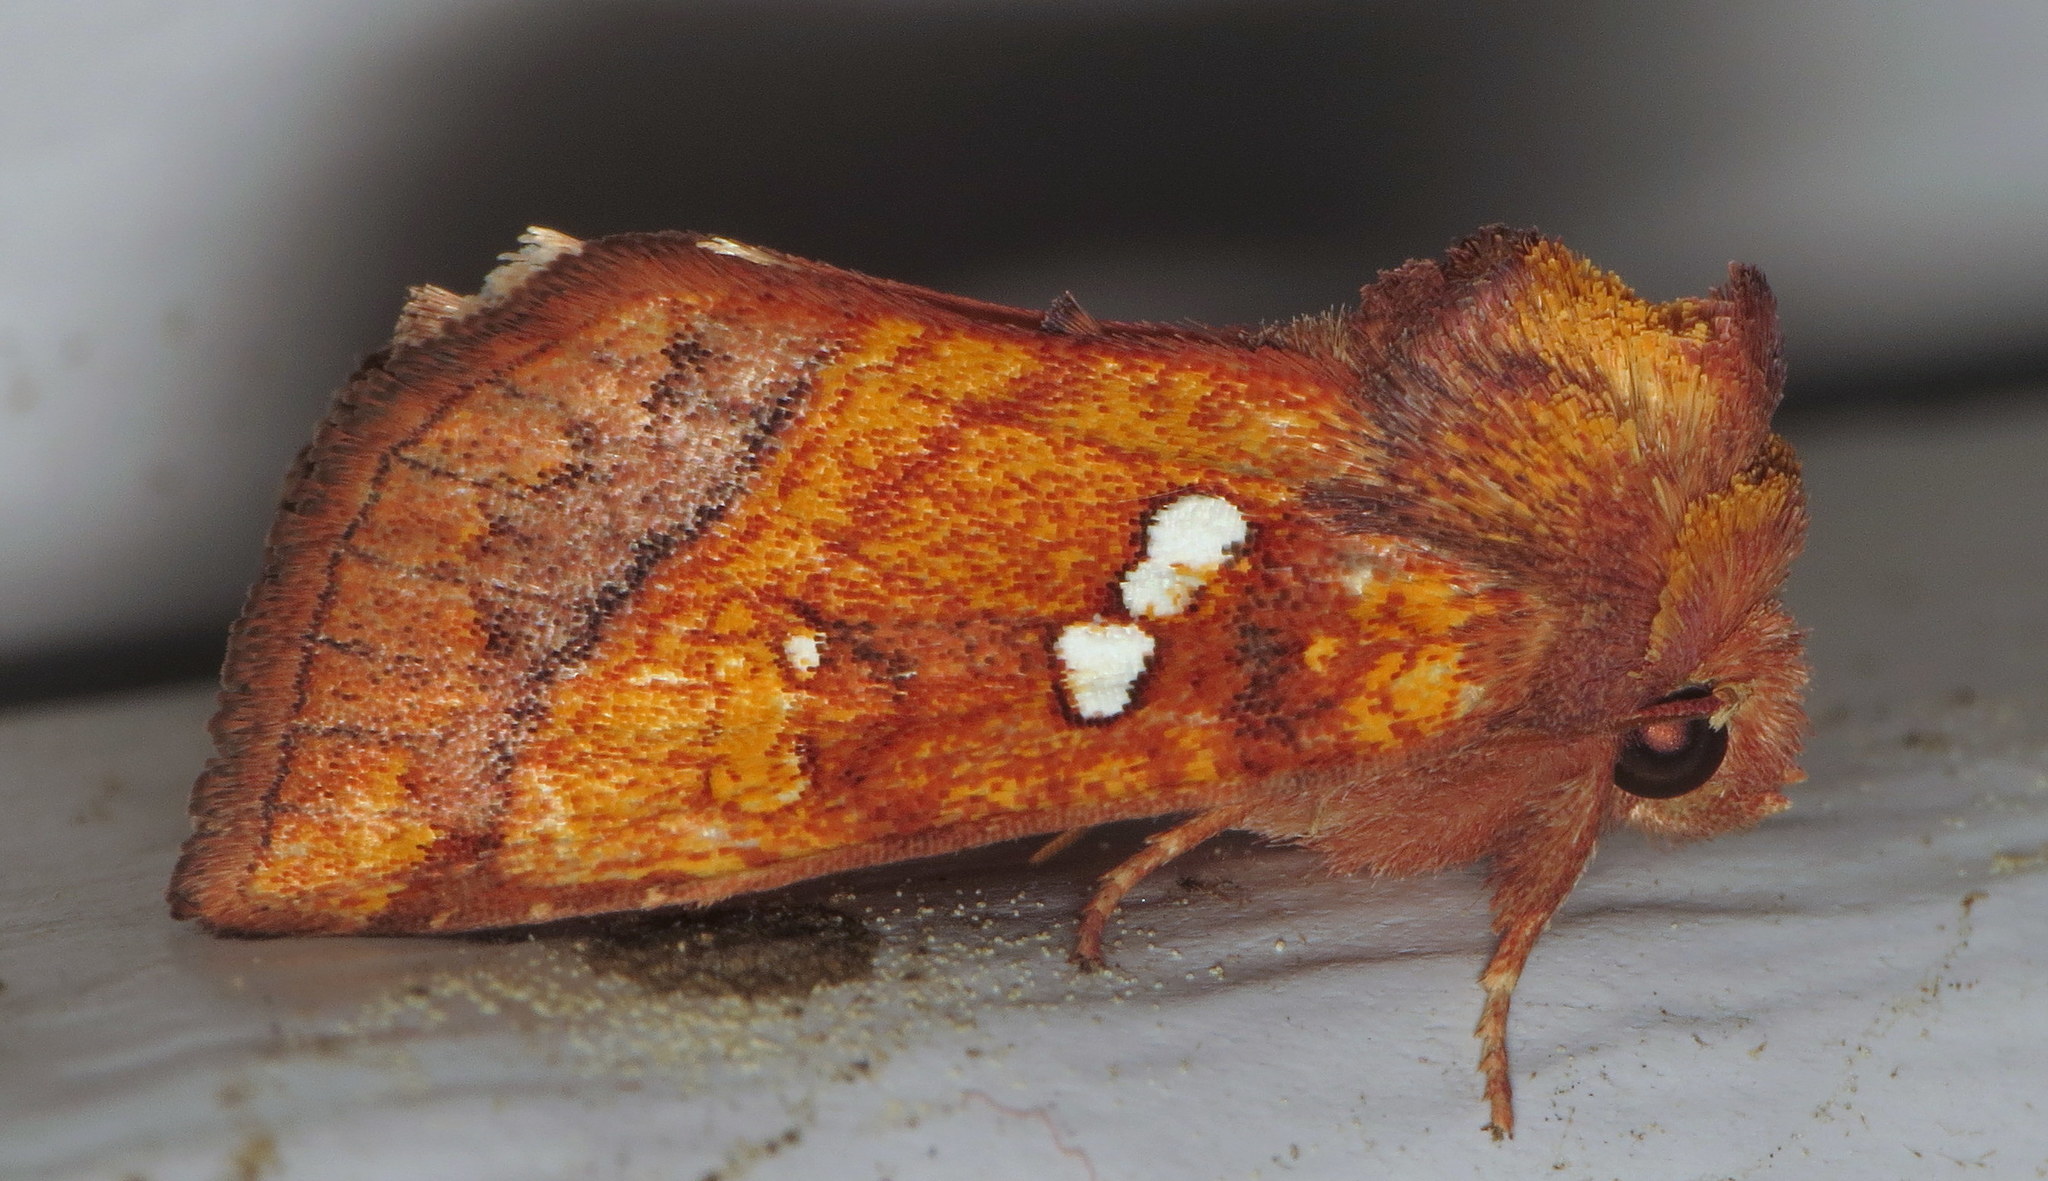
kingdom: Animalia
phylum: Arthropoda
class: Insecta
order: Lepidoptera
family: Noctuidae
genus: Papaipema
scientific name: Papaipema lysimachiae
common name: Loosestrife borer moth
